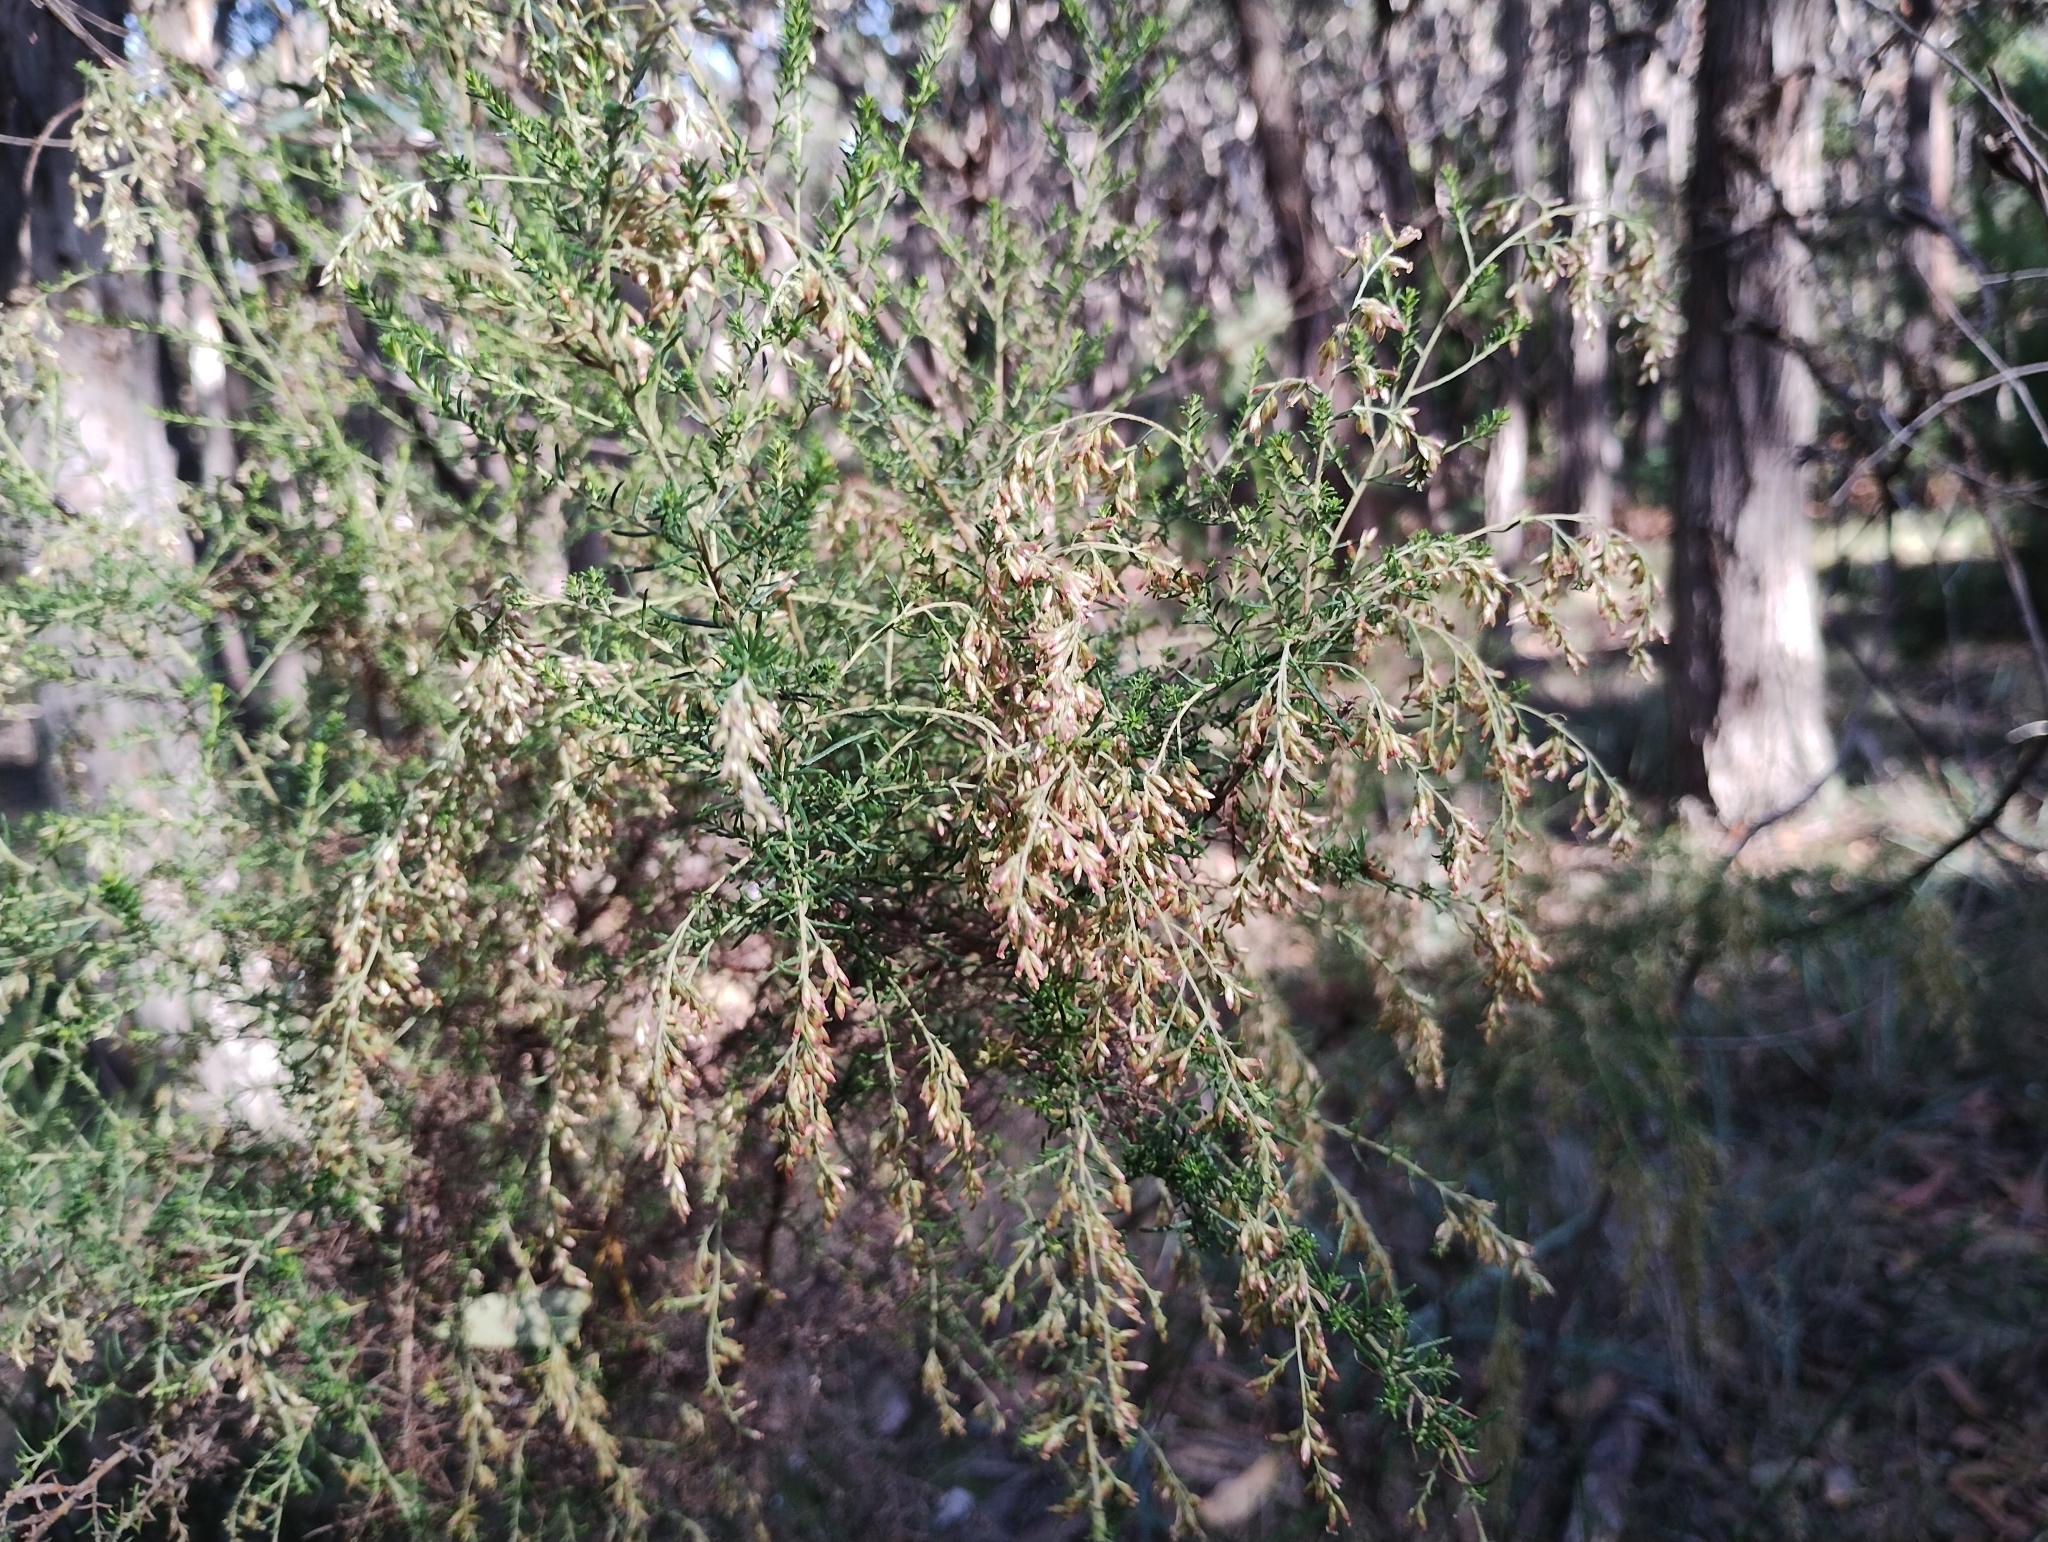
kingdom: Plantae
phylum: Tracheophyta
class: Magnoliopsida
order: Asterales
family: Asteraceae
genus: Cassinia
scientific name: Cassinia sifton
